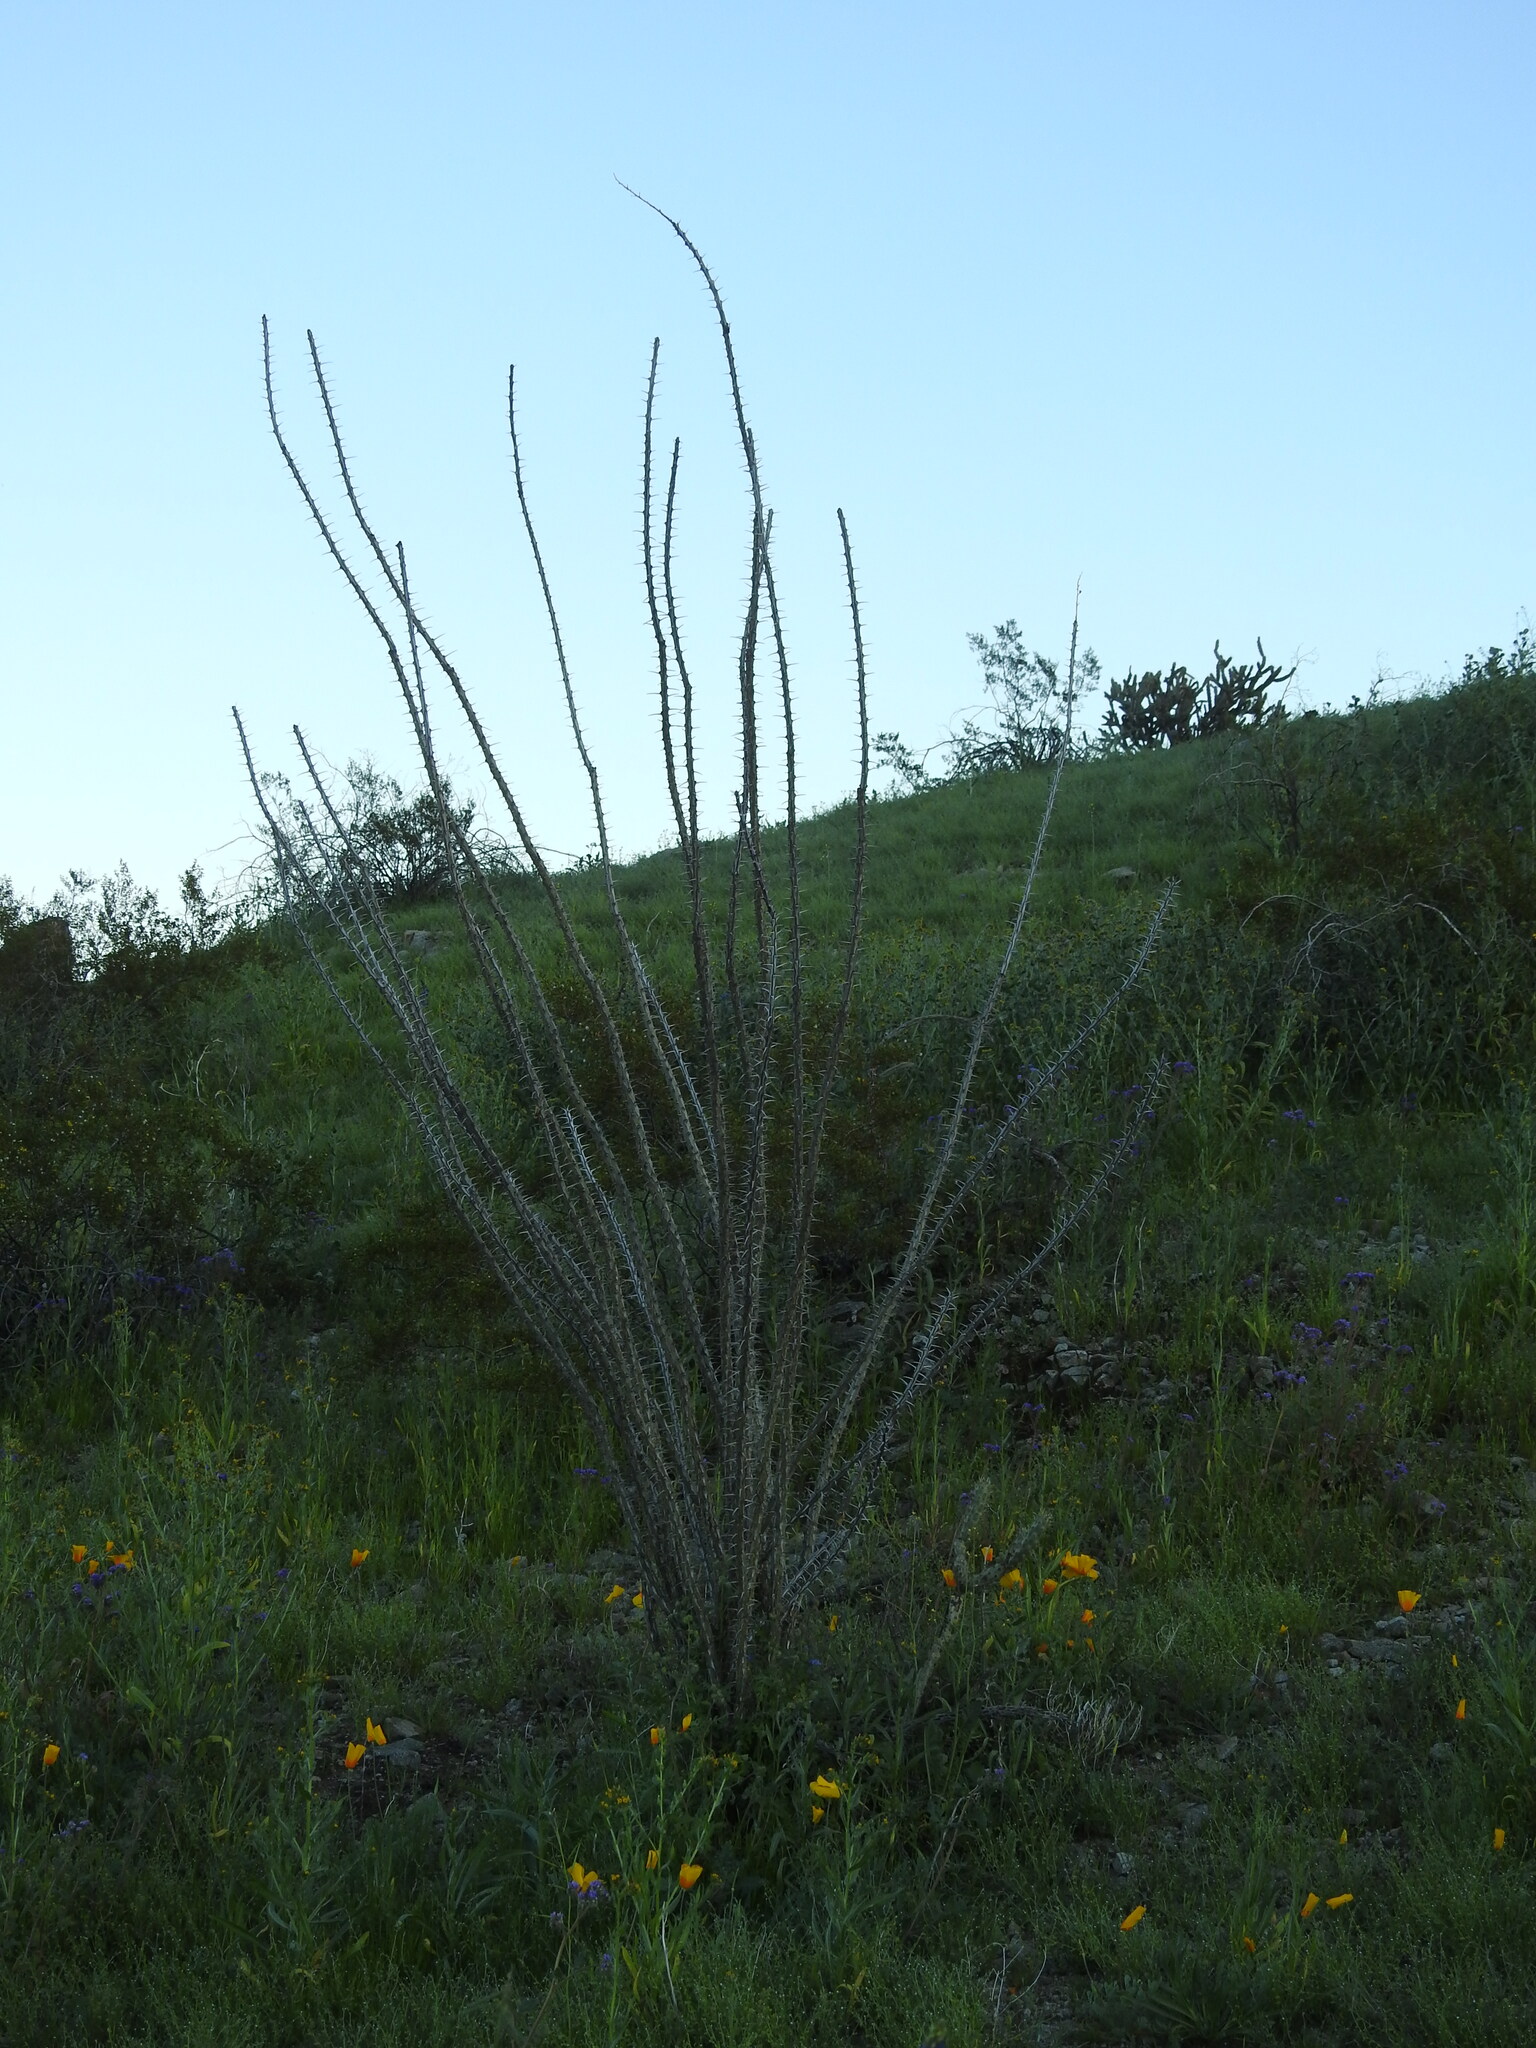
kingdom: Plantae
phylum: Tracheophyta
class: Magnoliopsida
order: Ericales
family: Fouquieriaceae
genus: Fouquieria
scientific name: Fouquieria splendens
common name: Vine-cactus
